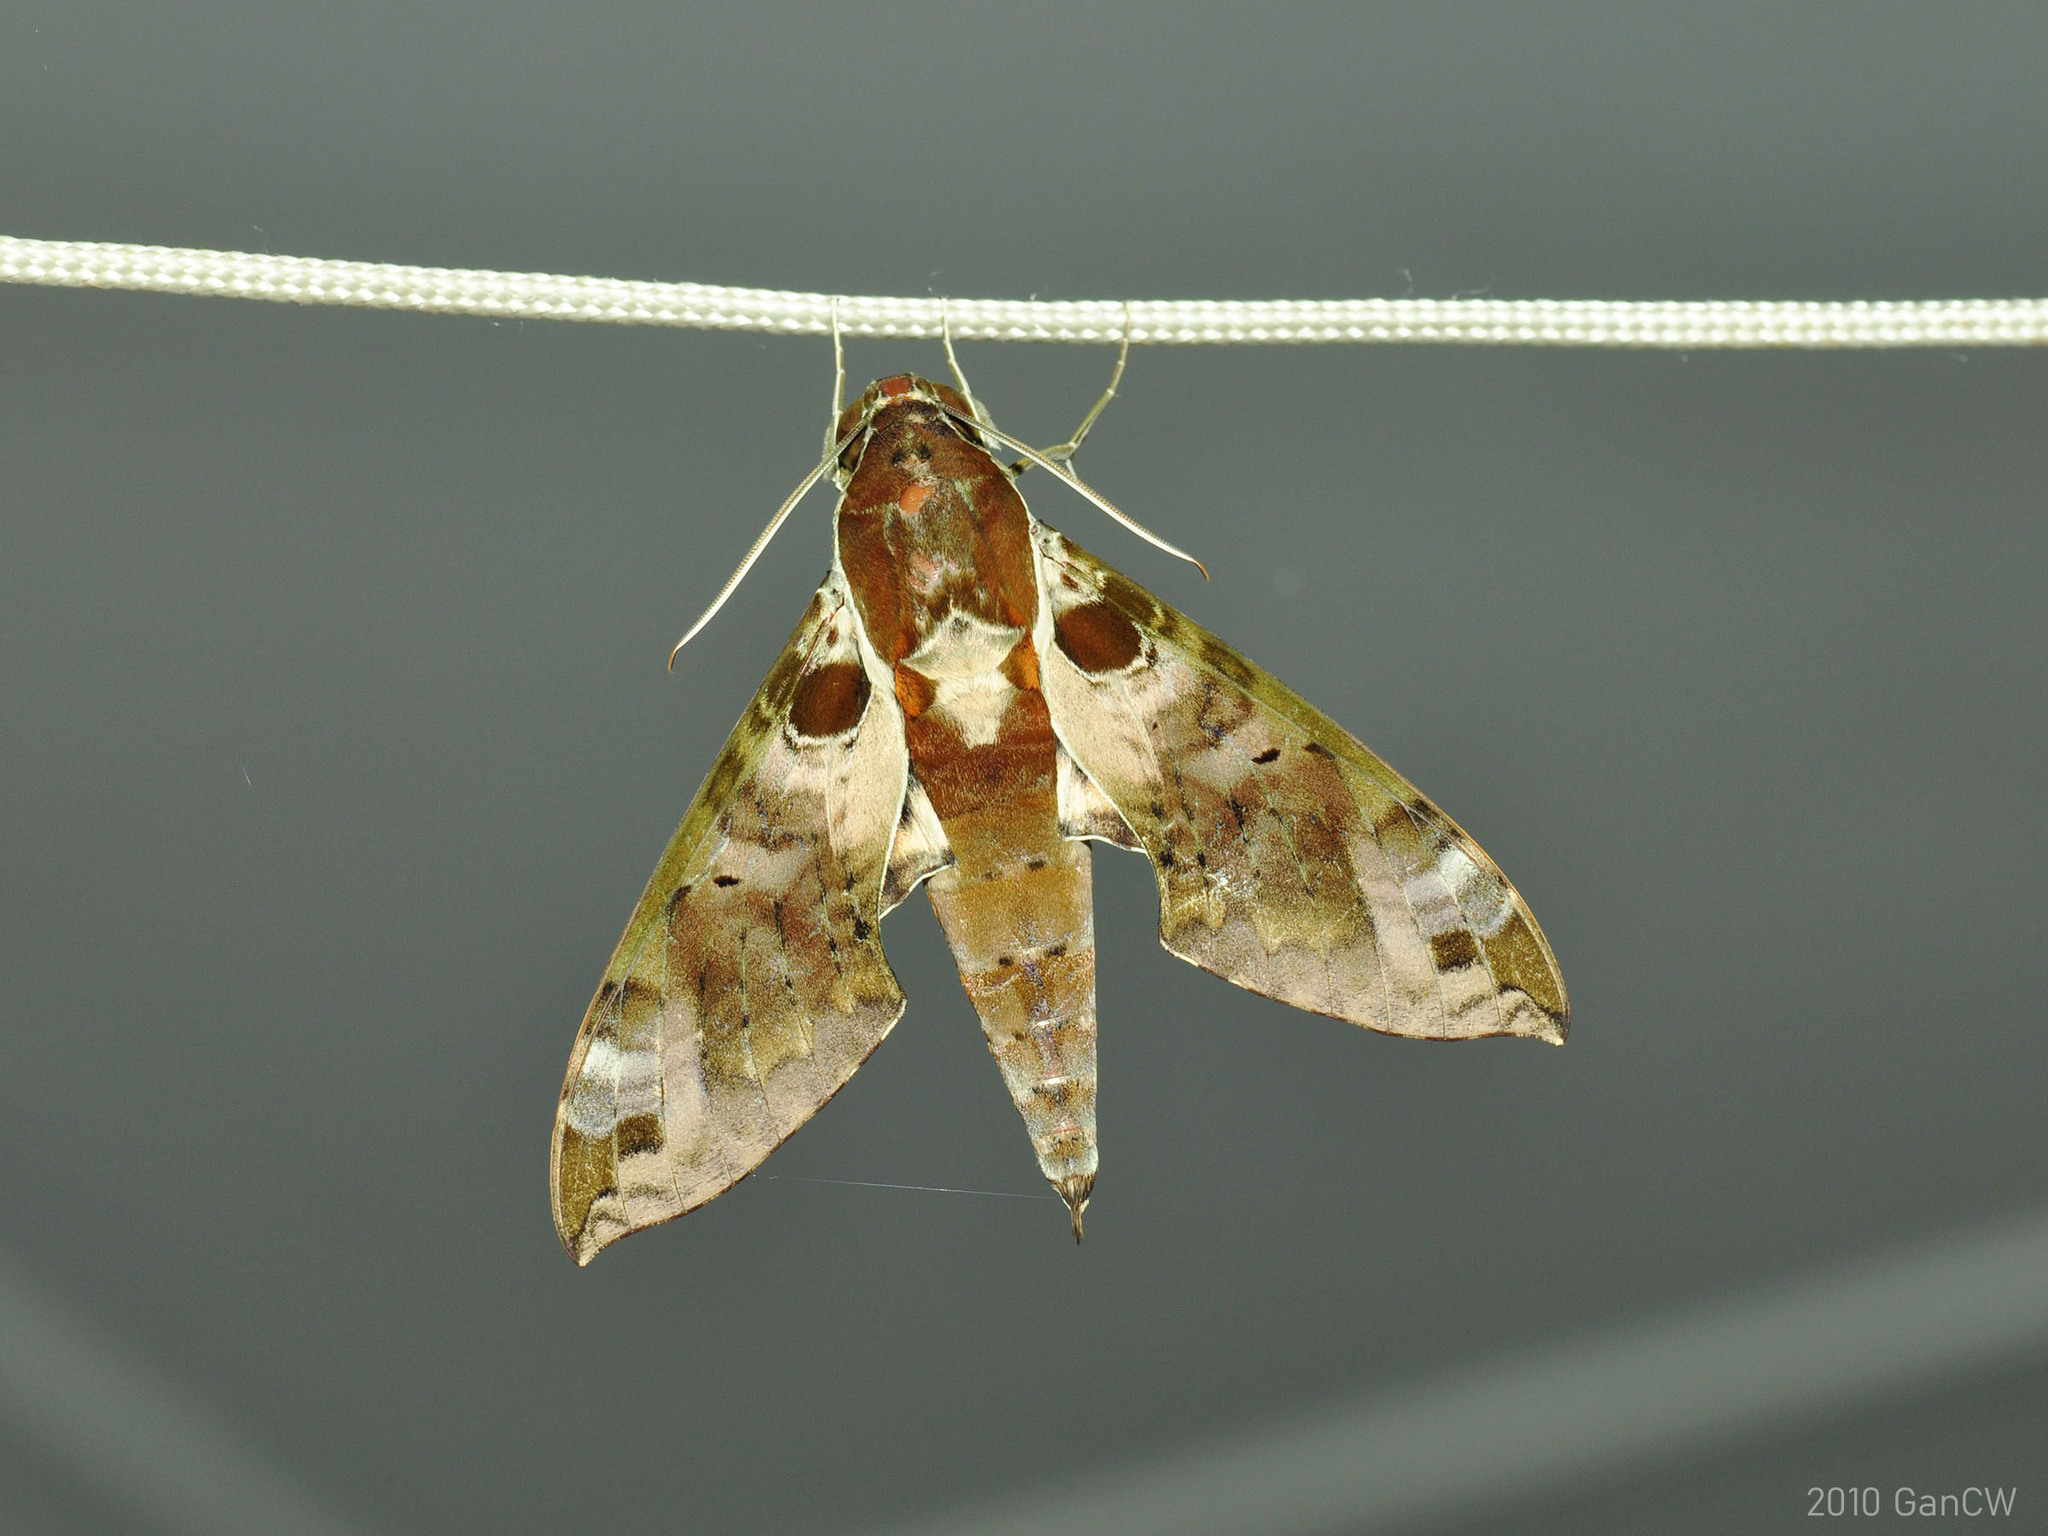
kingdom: Animalia
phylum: Arthropoda
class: Insecta
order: Lepidoptera
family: Sphingidae
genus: Cechenena
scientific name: Cechenena helops
